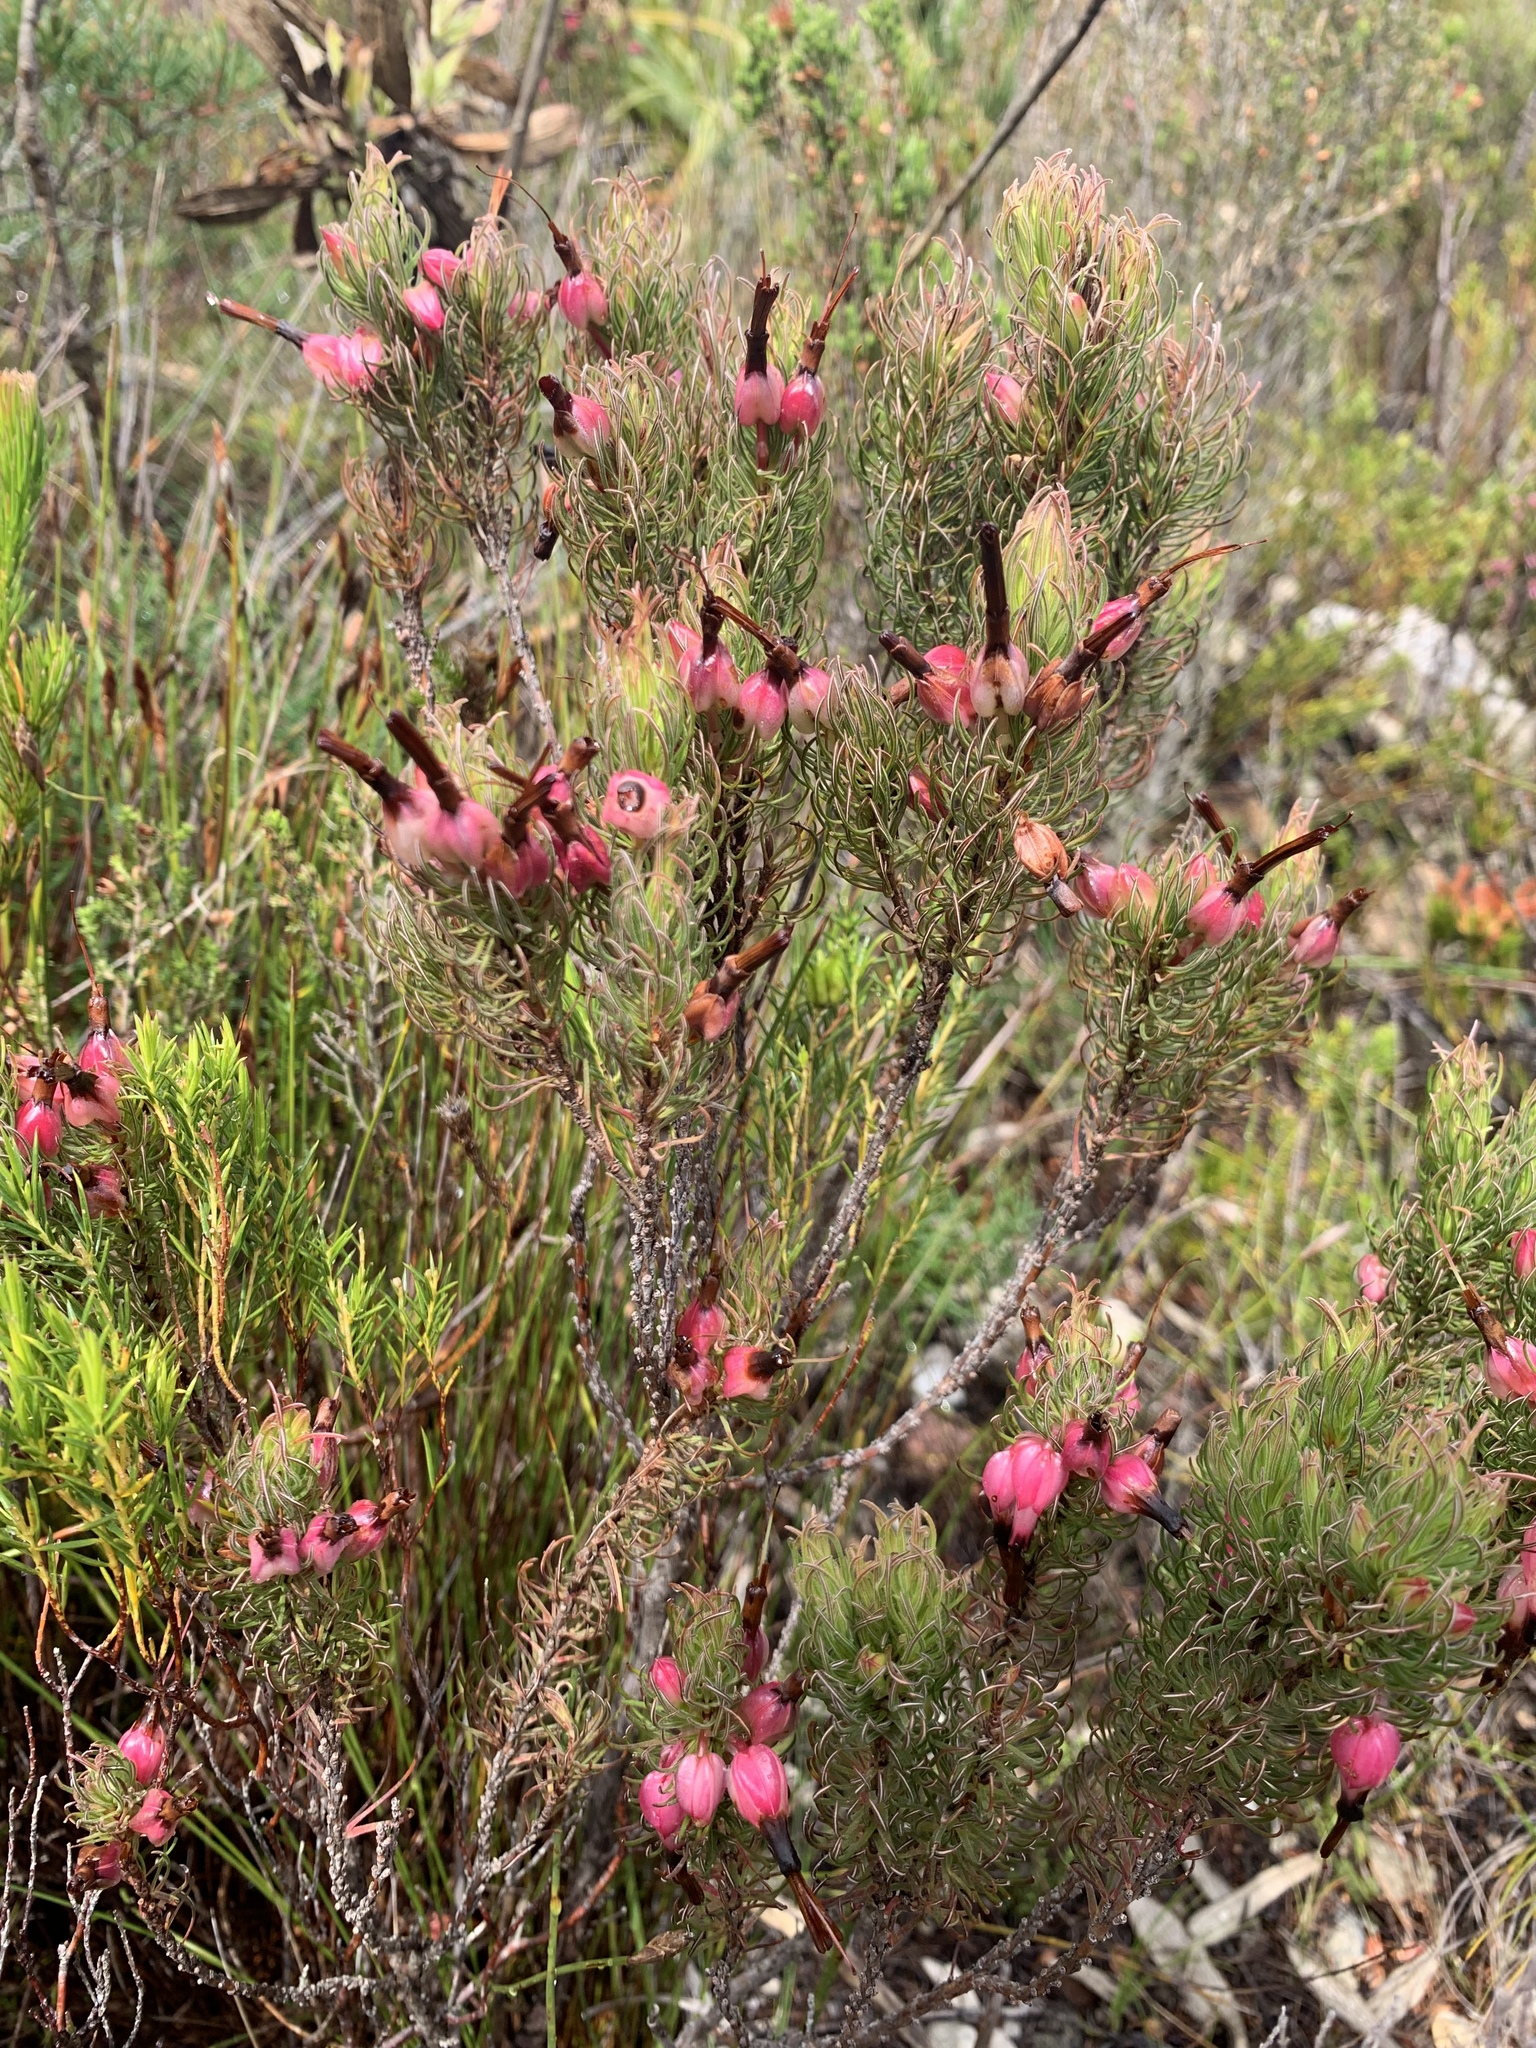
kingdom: Plantae
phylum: Tracheophyta
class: Magnoliopsida
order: Ericales
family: Ericaceae
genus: Erica
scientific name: Erica plukenetii
